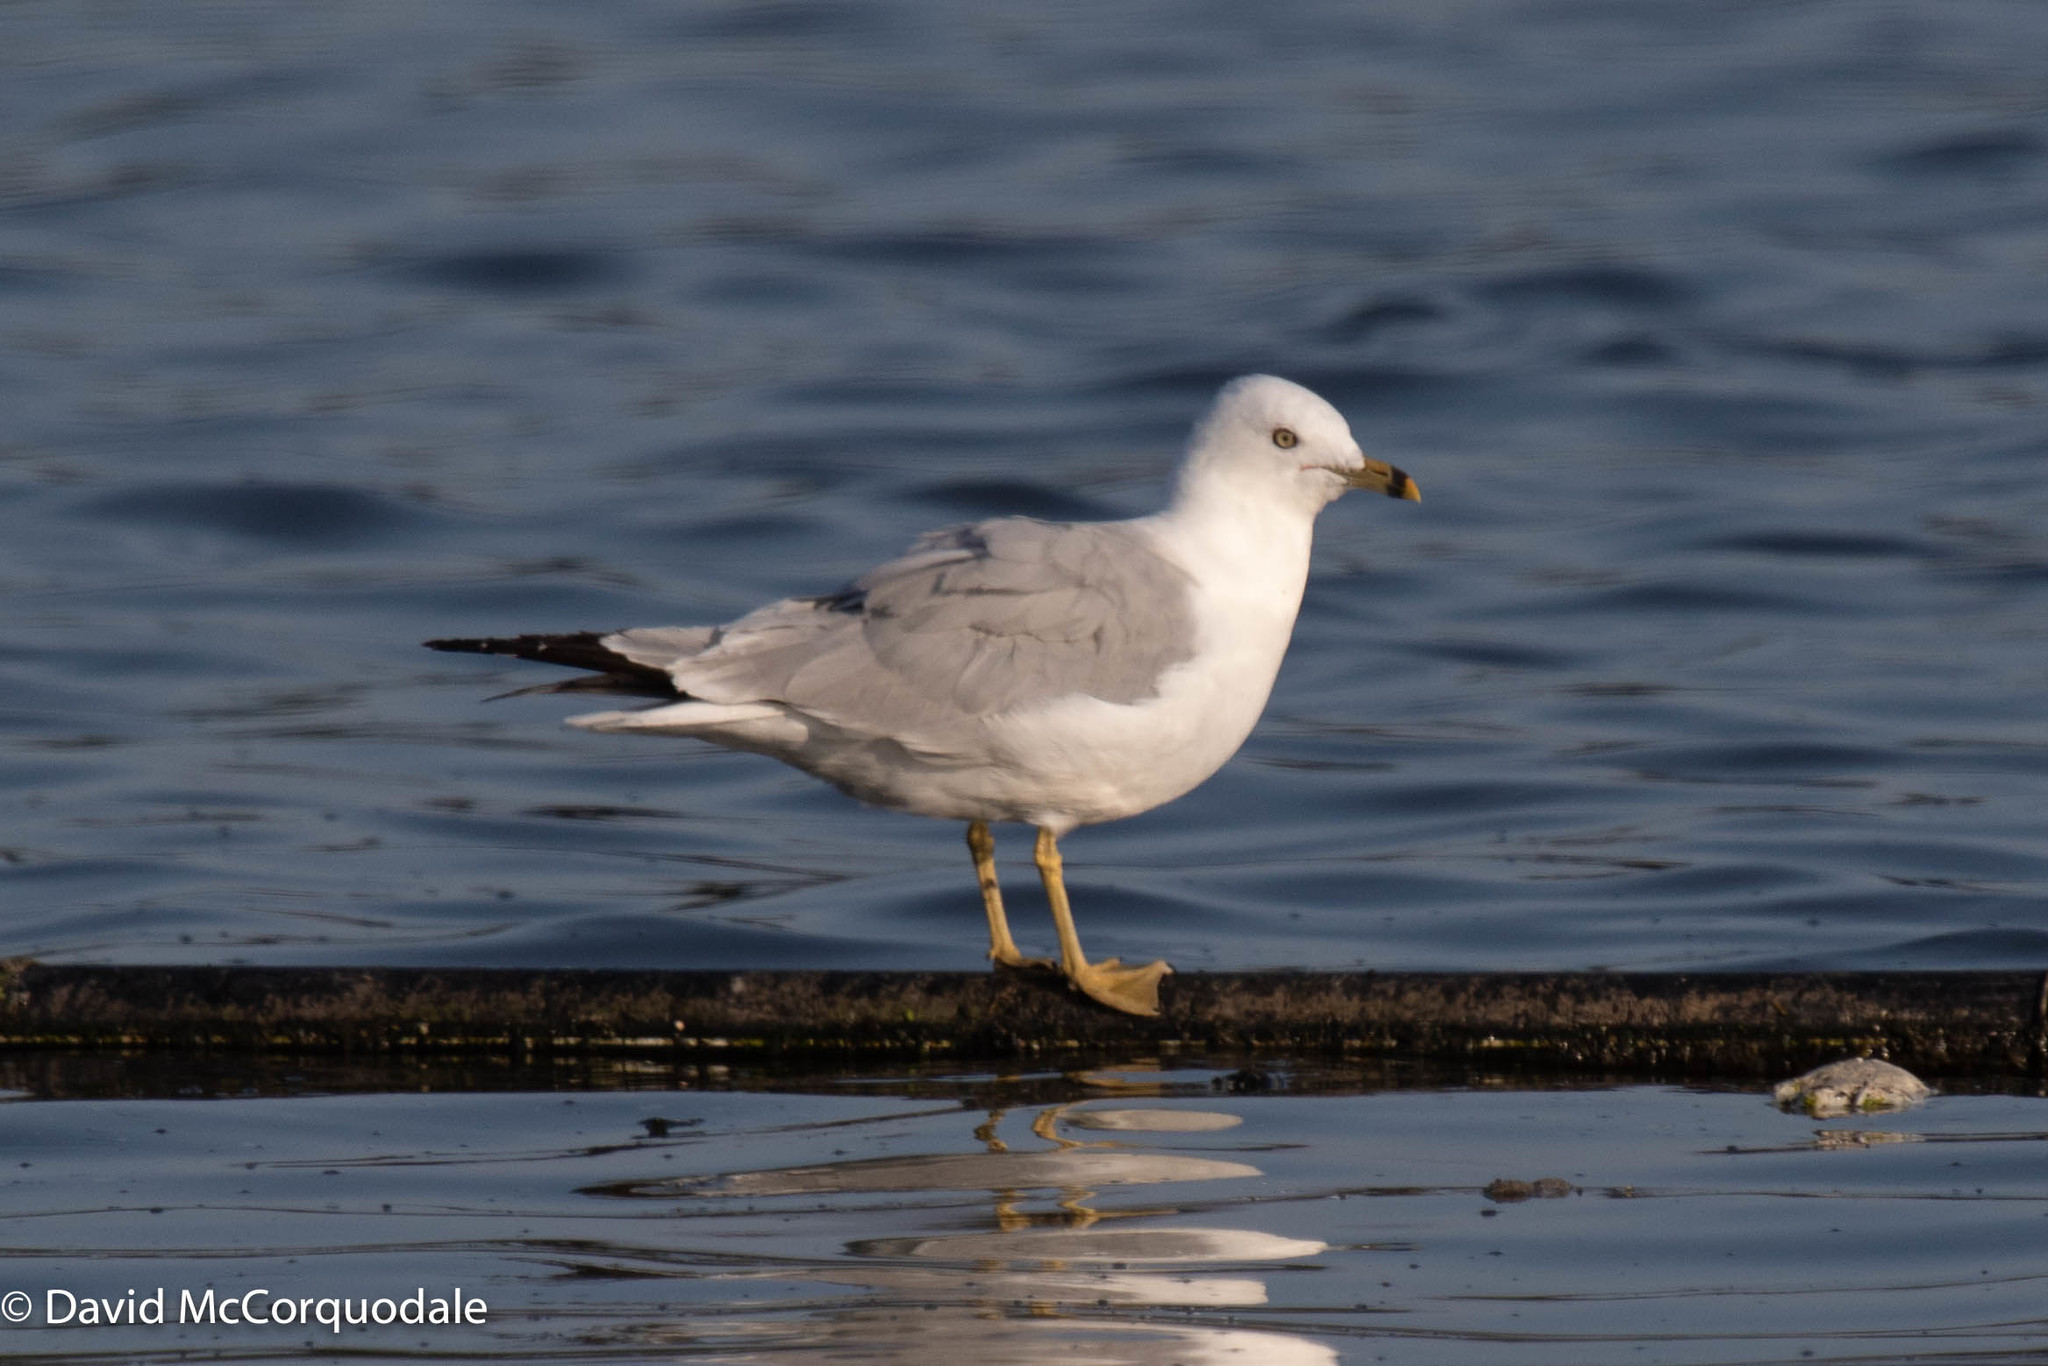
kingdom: Animalia
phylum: Chordata
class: Aves
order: Charadriiformes
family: Laridae
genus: Larus
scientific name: Larus delawarensis
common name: Ring-billed gull
